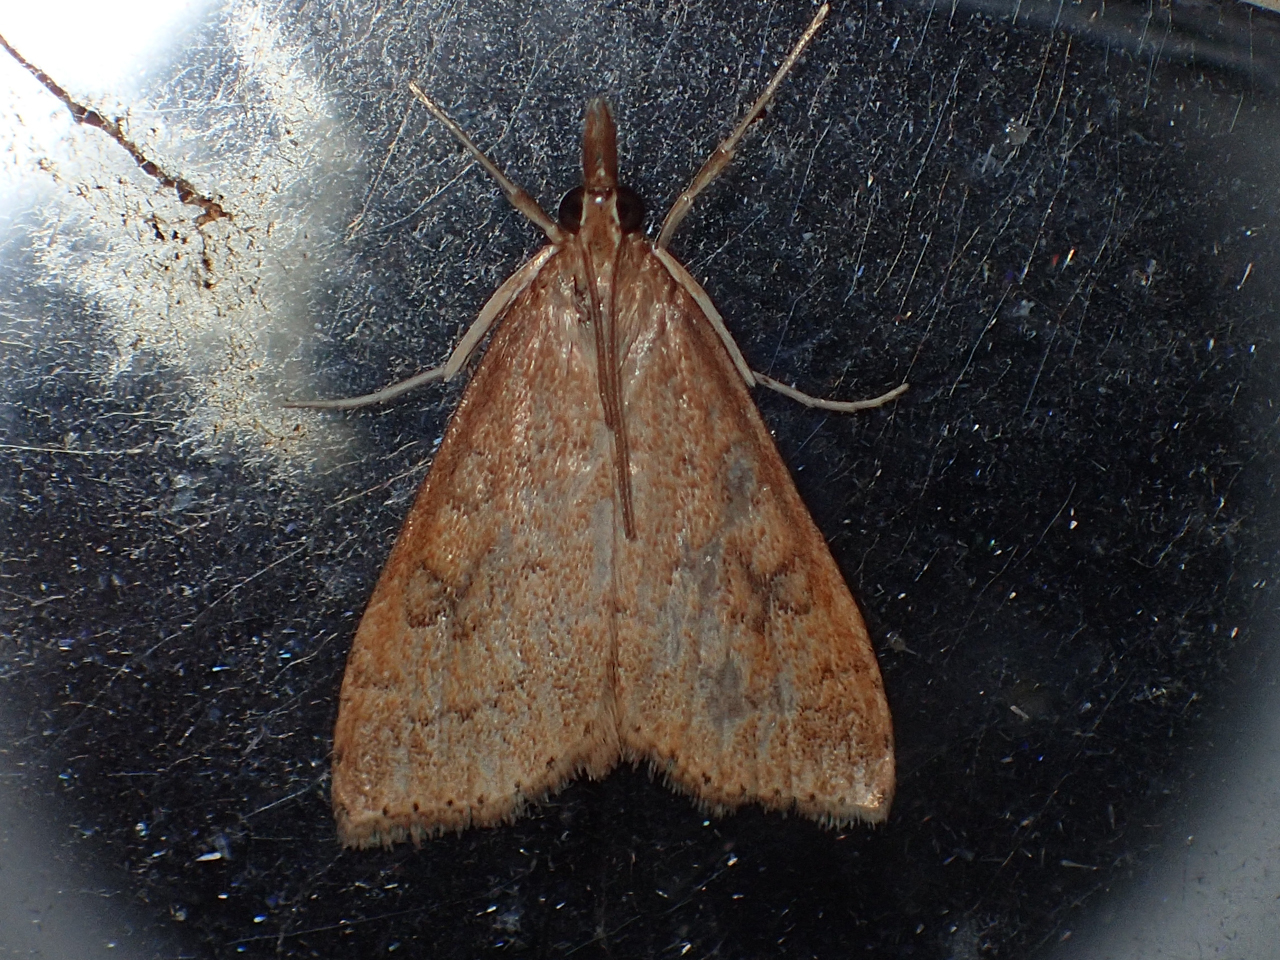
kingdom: Animalia
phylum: Arthropoda
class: Insecta
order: Lepidoptera
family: Crambidae
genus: Udea
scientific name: Udea rubigalis
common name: Celery leaftier moth
